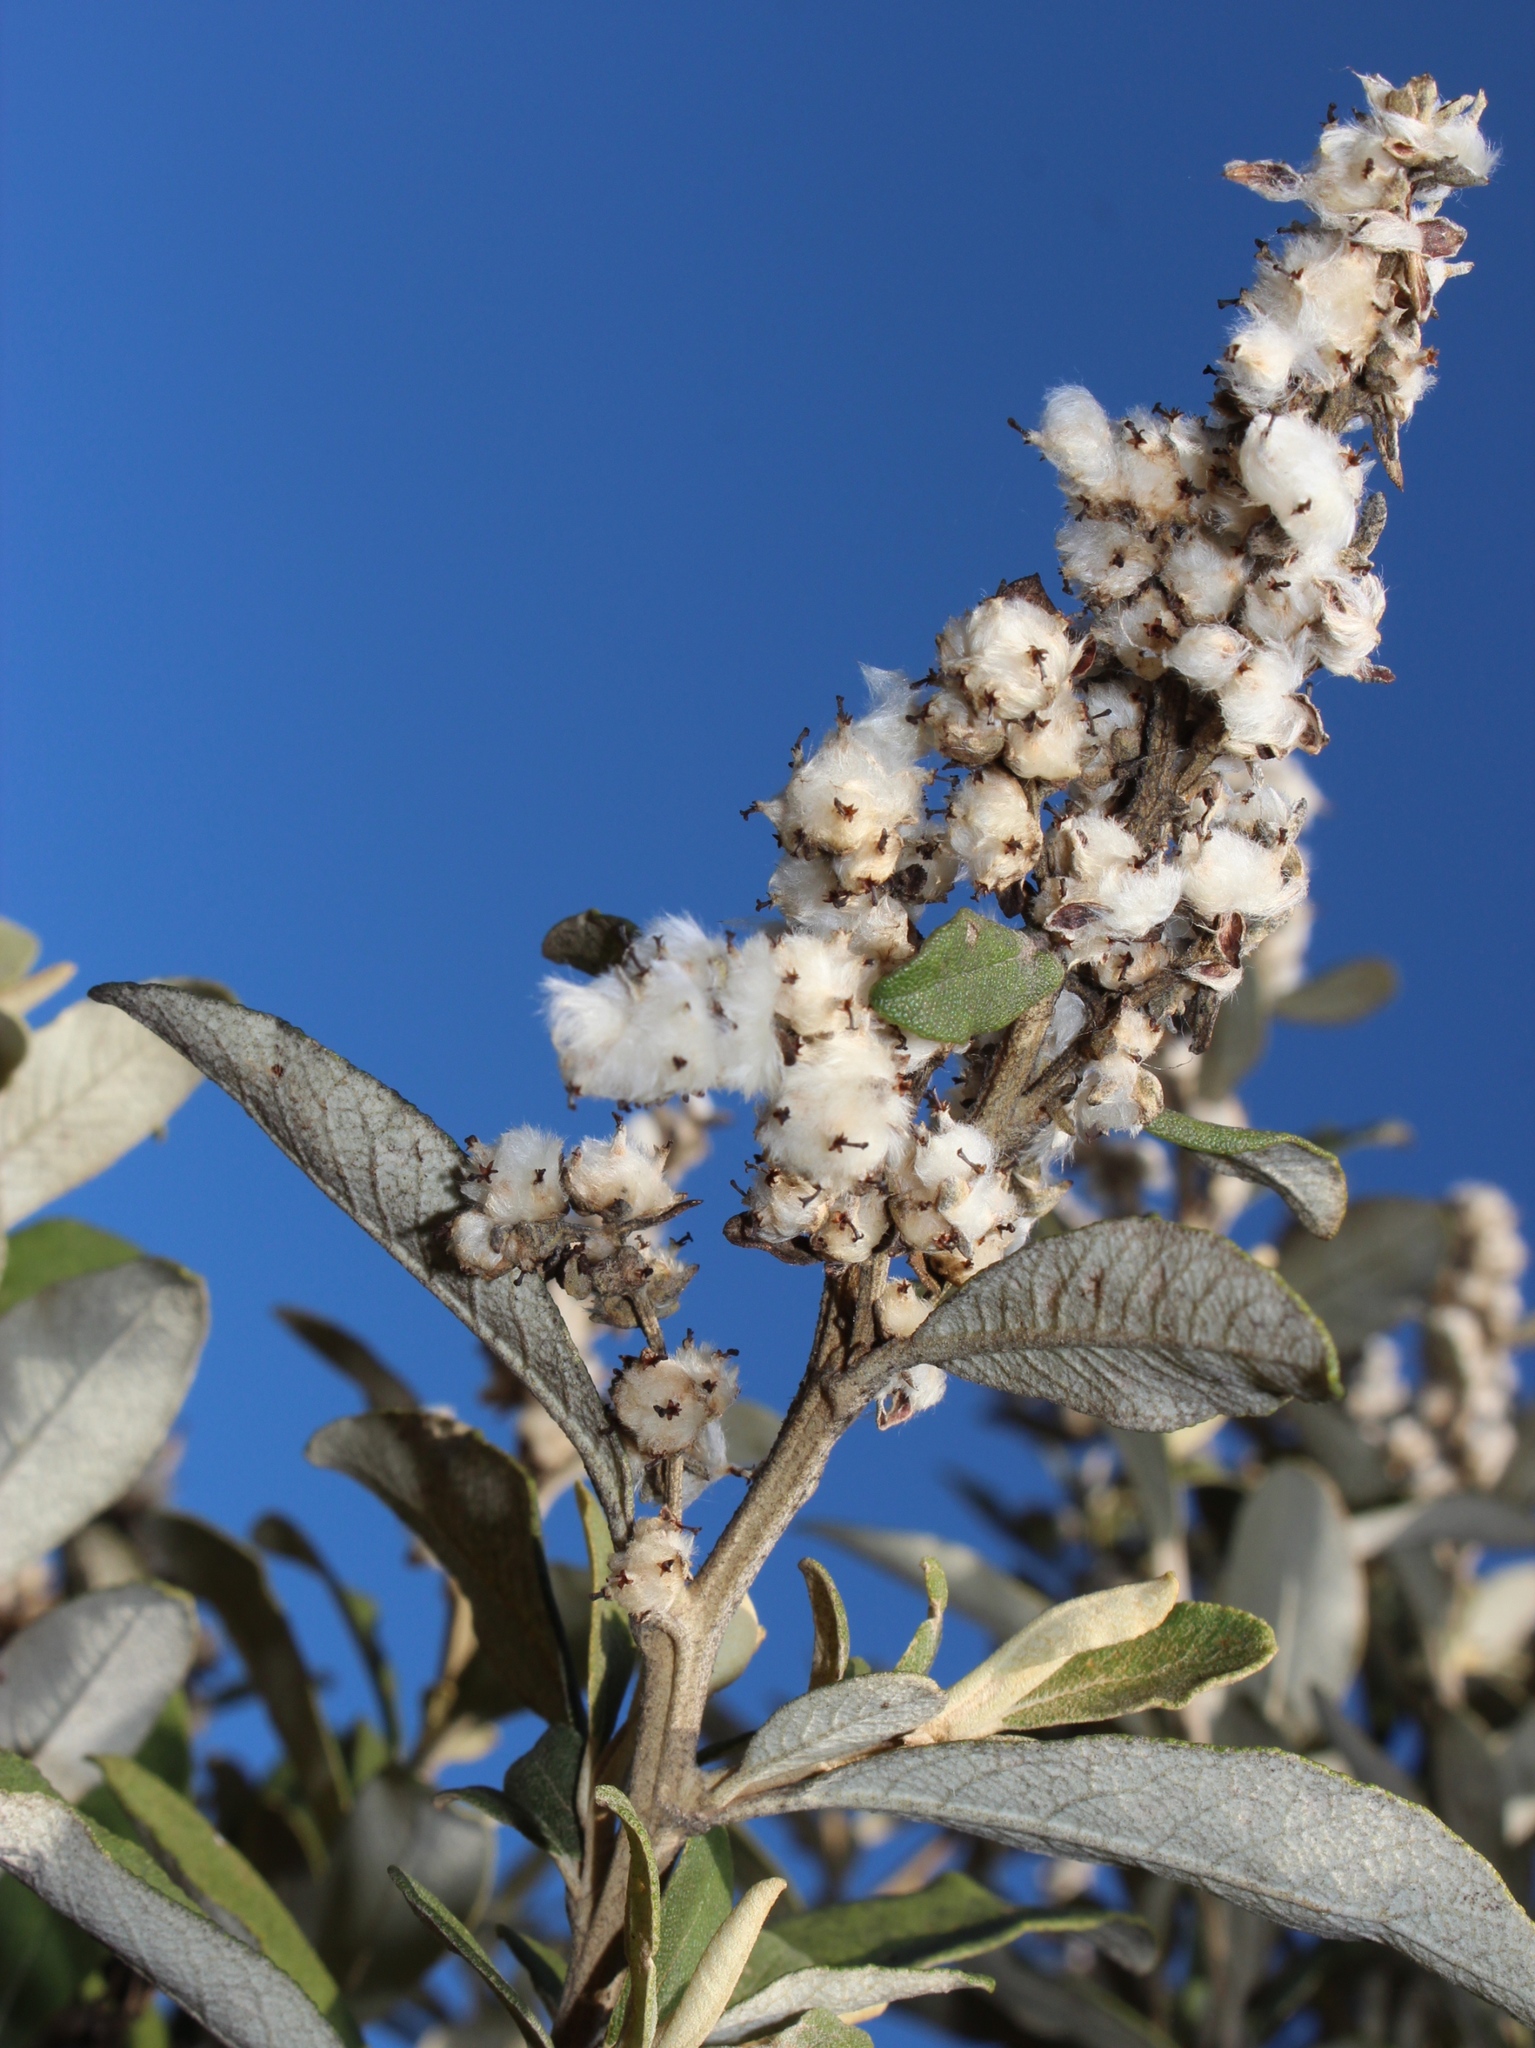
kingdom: Plantae
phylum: Tracheophyta
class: Magnoliopsida
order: Asterales
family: Asteraceae
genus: Tarchonanthus
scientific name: Tarchonanthus littoralis
